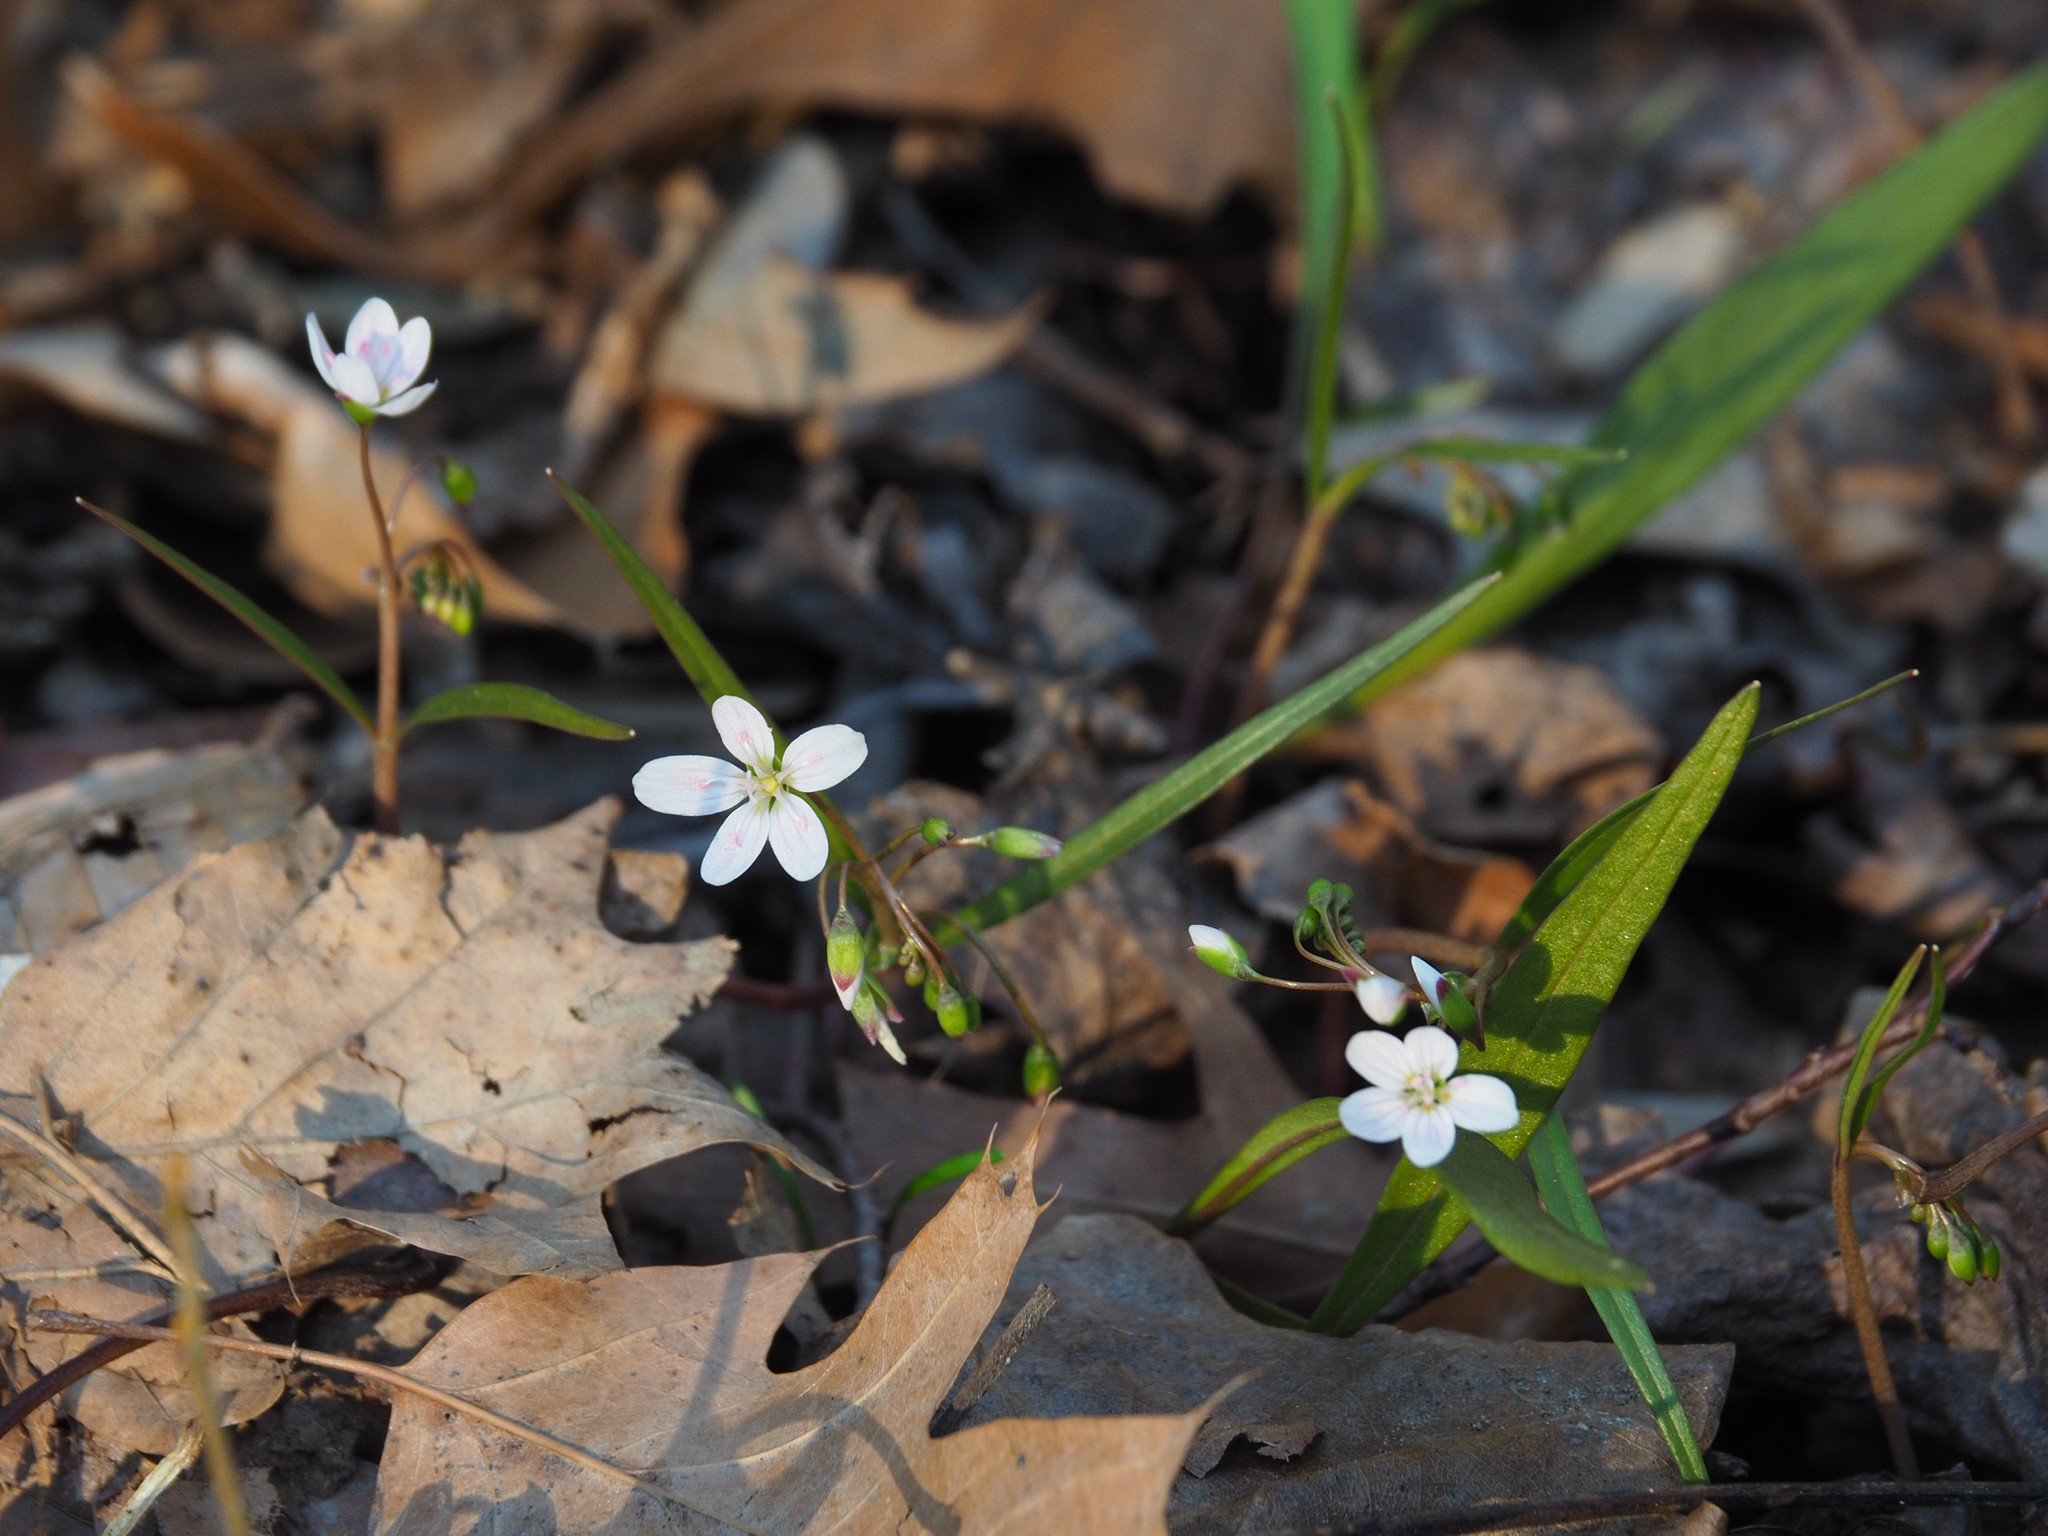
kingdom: Plantae
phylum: Tracheophyta
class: Magnoliopsida
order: Caryophyllales
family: Montiaceae
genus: Claytonia
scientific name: Claytonia virginica
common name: Virginia springbeauty
